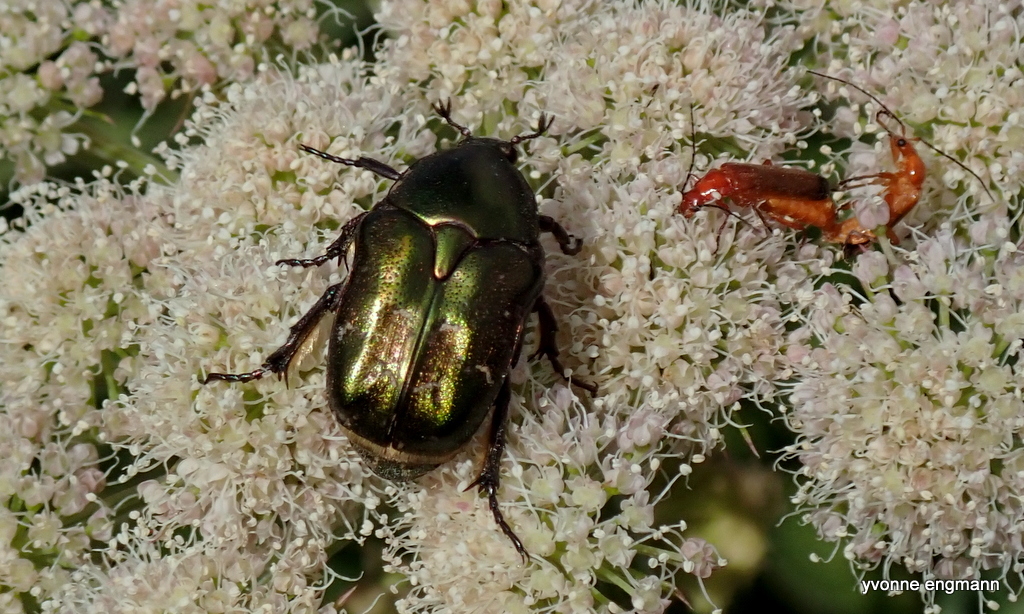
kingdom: Animalia
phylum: Arthropoda
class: Insecta
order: Coleoptera
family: Scarabaeidae
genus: Protaetia
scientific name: Protaetia cuprea
